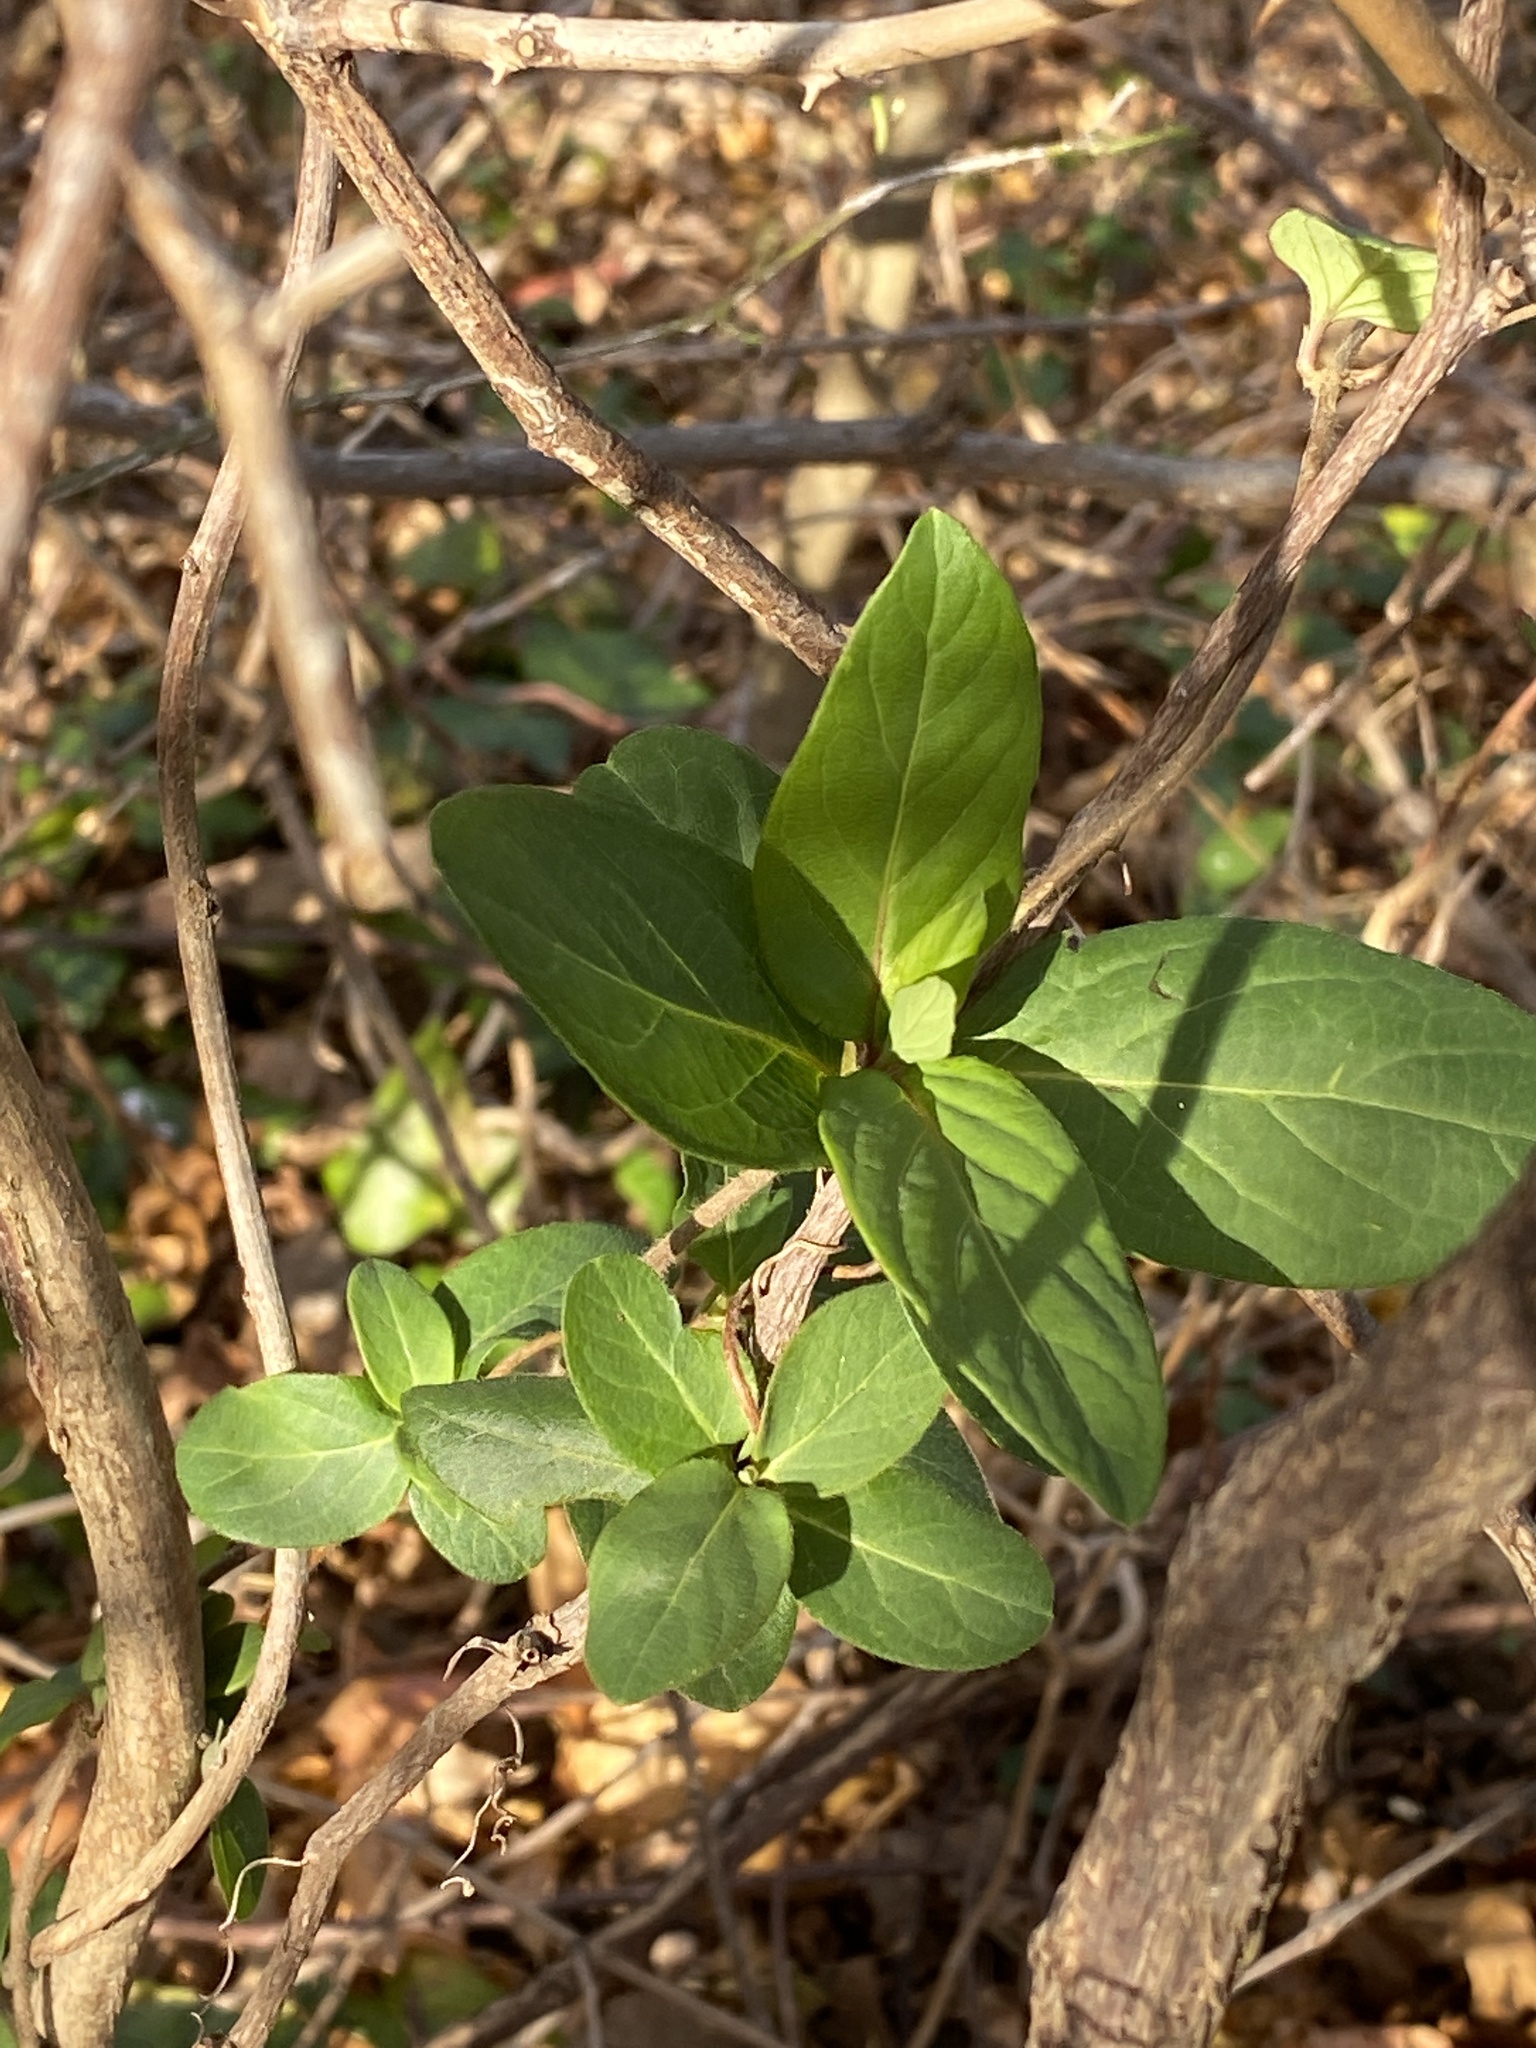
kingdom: Plantae
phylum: Tracheophyta
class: Magnoliopsida
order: Dipsacales
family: Caprifoliaceae
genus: Lonicera
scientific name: Lonicera japonica
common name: Japanese honeysuckle
